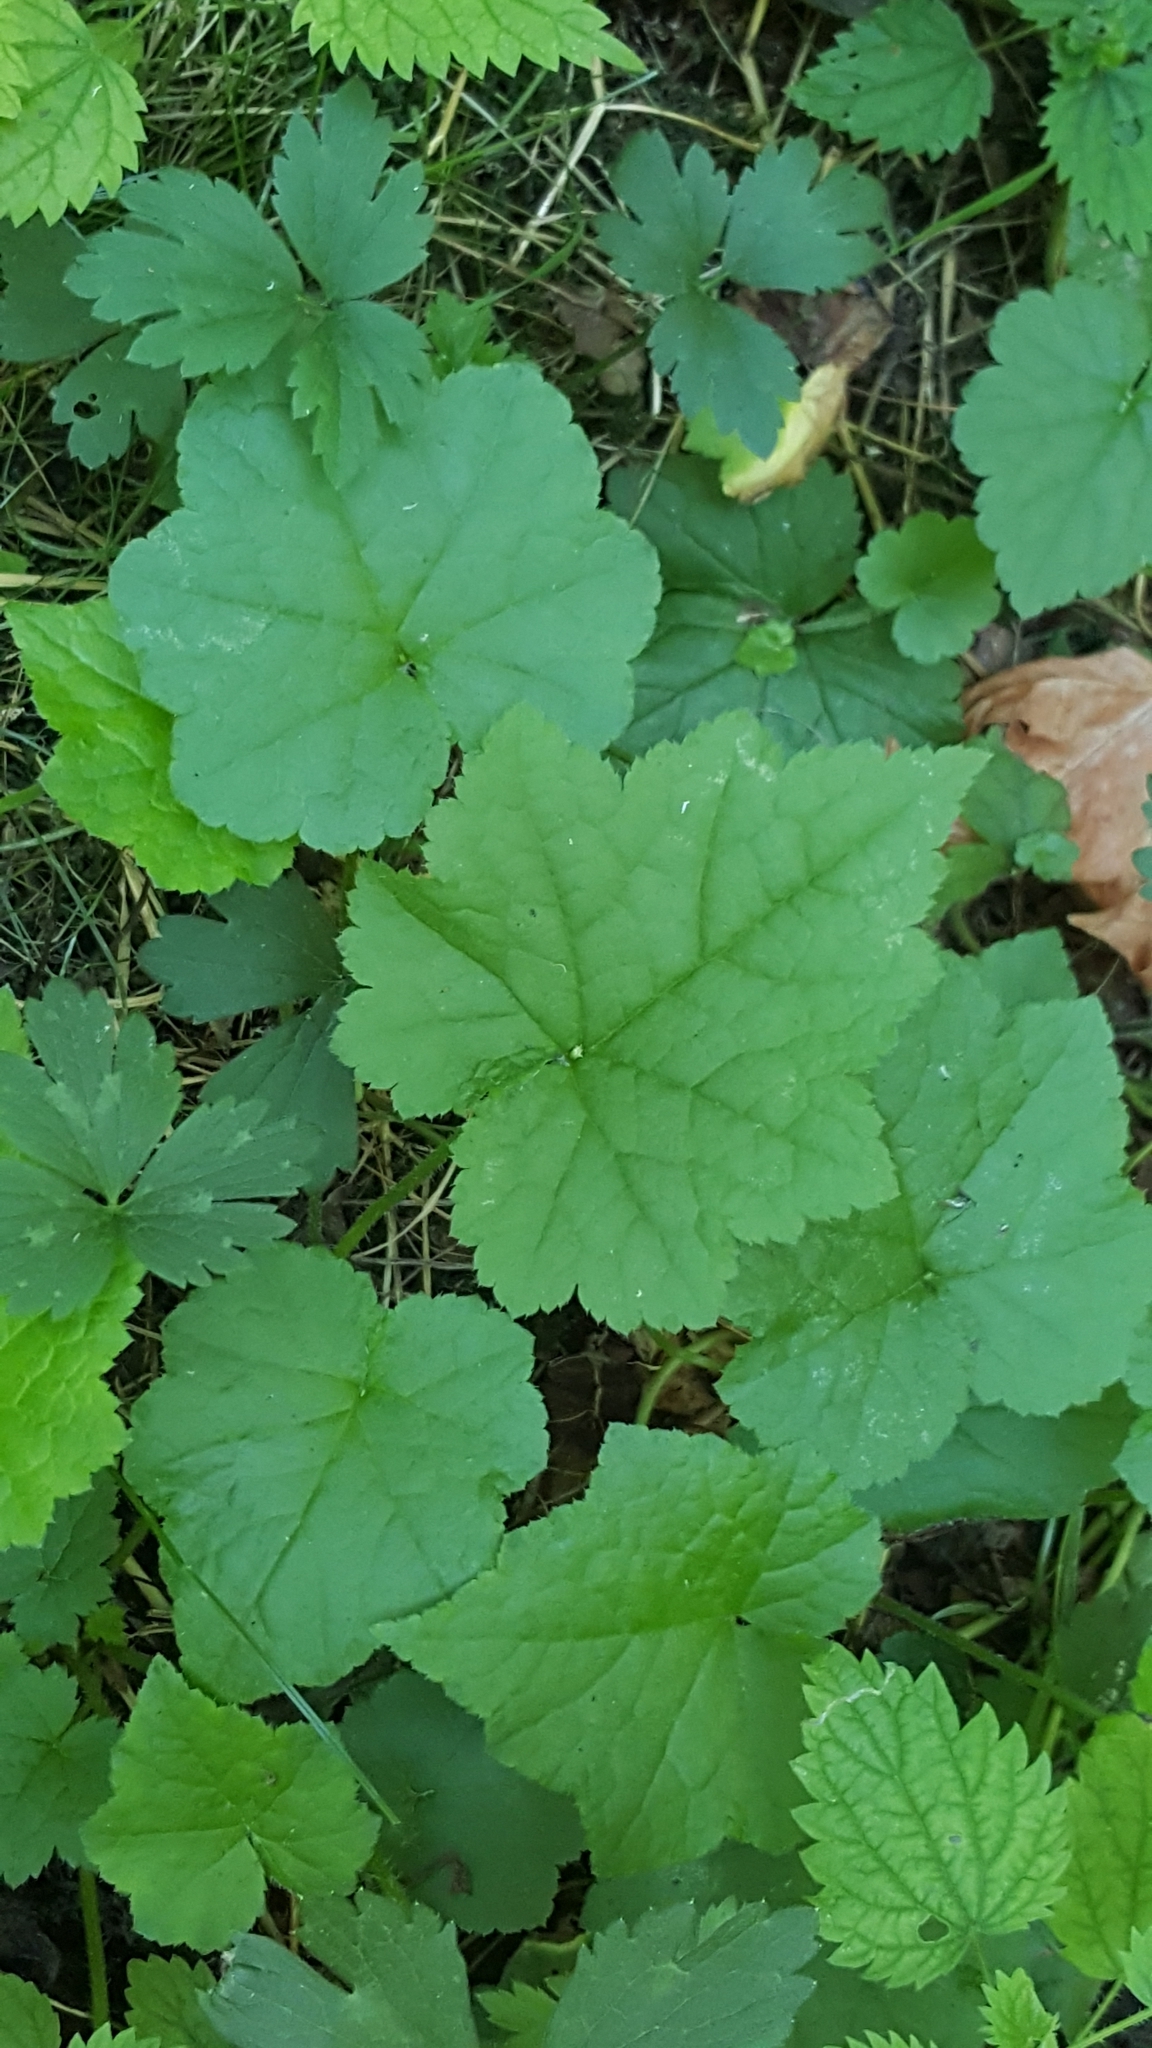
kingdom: Plantae
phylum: Tracheophyta
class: Magnoliopsida
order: Saxifragales
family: Saxifragaceae
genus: Tolmiea
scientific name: Tolmiea menziesii
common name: Pick-a-back-plant
